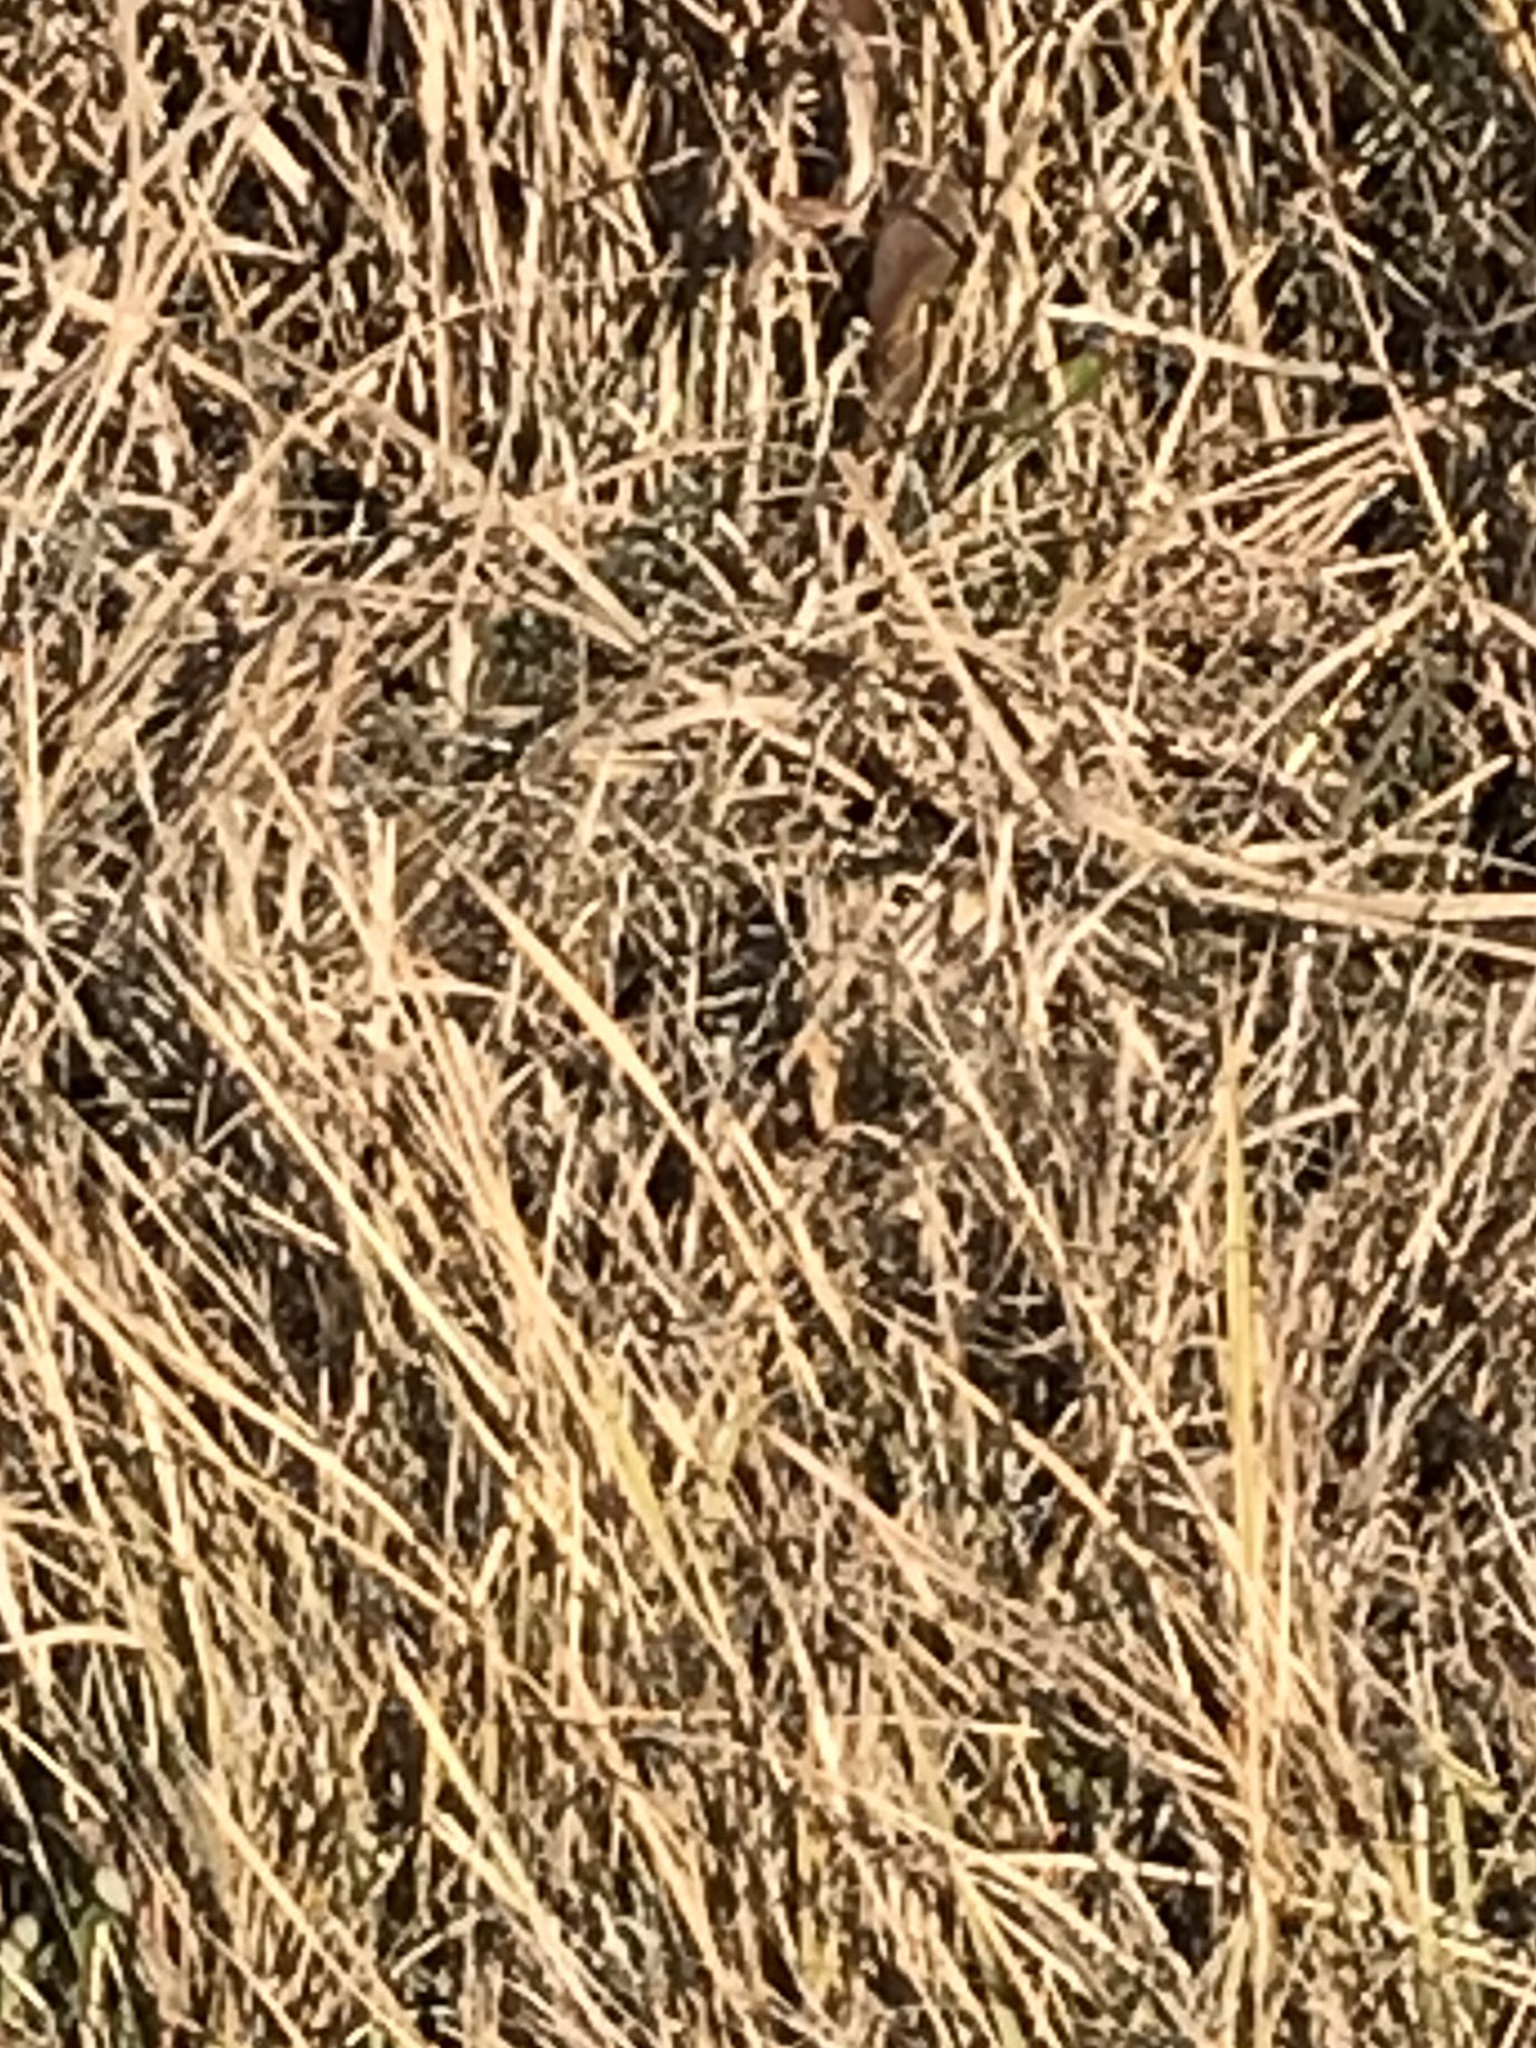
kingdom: Animalia
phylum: Chordata
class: Mammalia
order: Rodentia
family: Sciuridae
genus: Ictidomys
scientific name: Ictidomys tridecemlineatus
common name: Thirteen-lined ground squirrel
